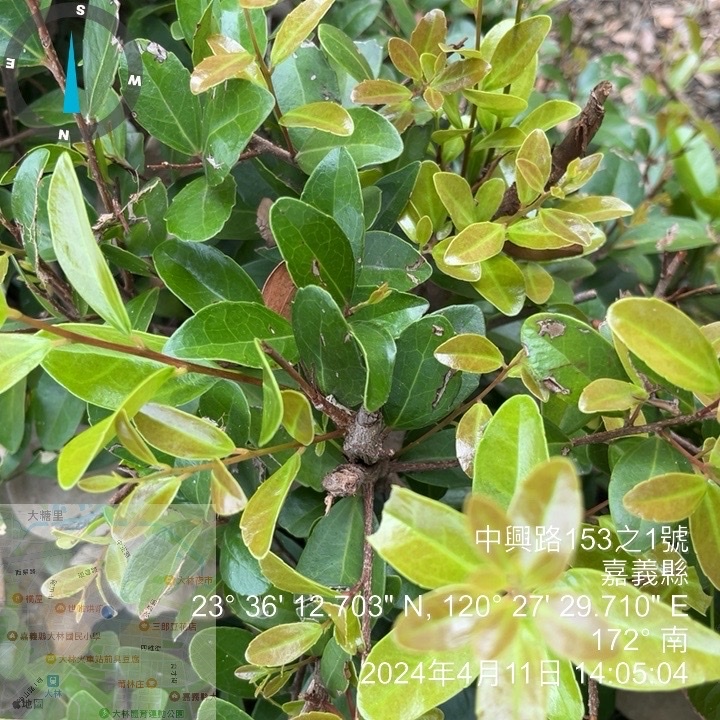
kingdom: Plantae
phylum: Tracheophyta
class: Magnoliopsida
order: Malpighiales
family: Salicaceae
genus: Scolopia
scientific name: Scolopia oldhamii
